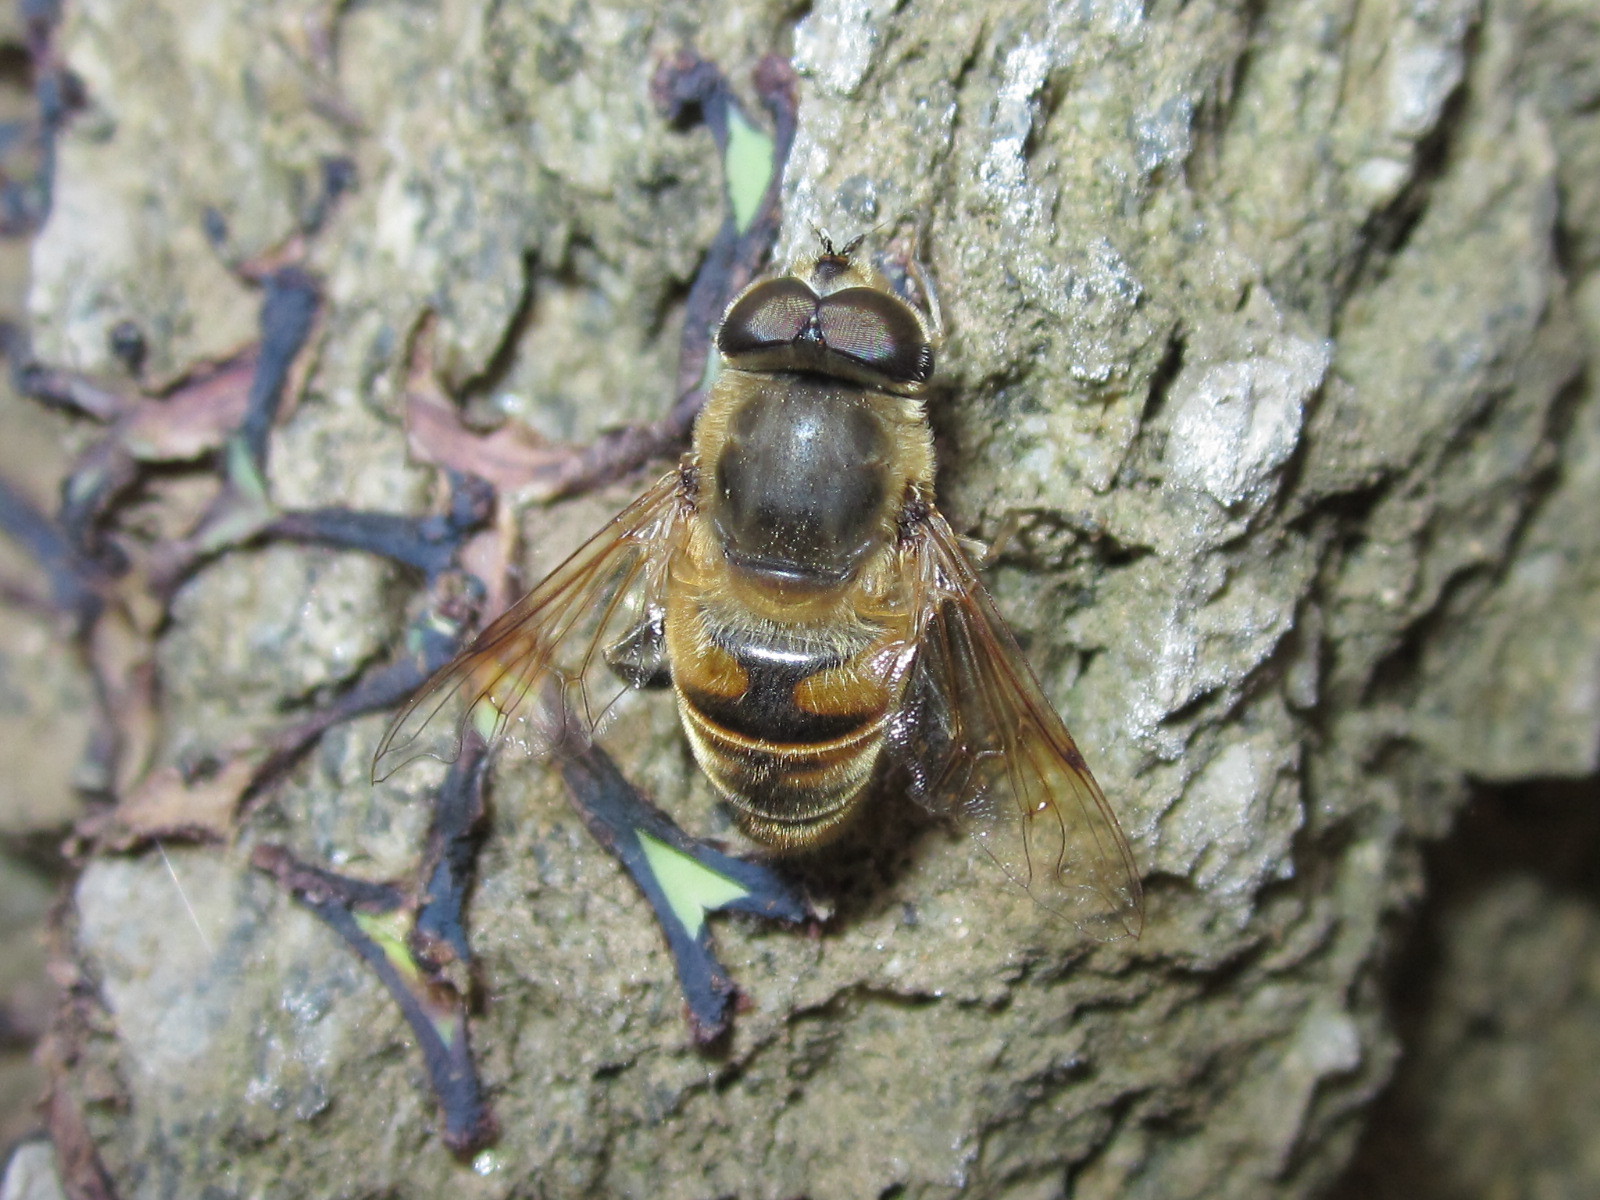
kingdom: Animalia
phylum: Arthropoda
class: Insecta
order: Diptera
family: Syrphidae
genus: Eristalis
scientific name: Eristalis tenax
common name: Drone fly
